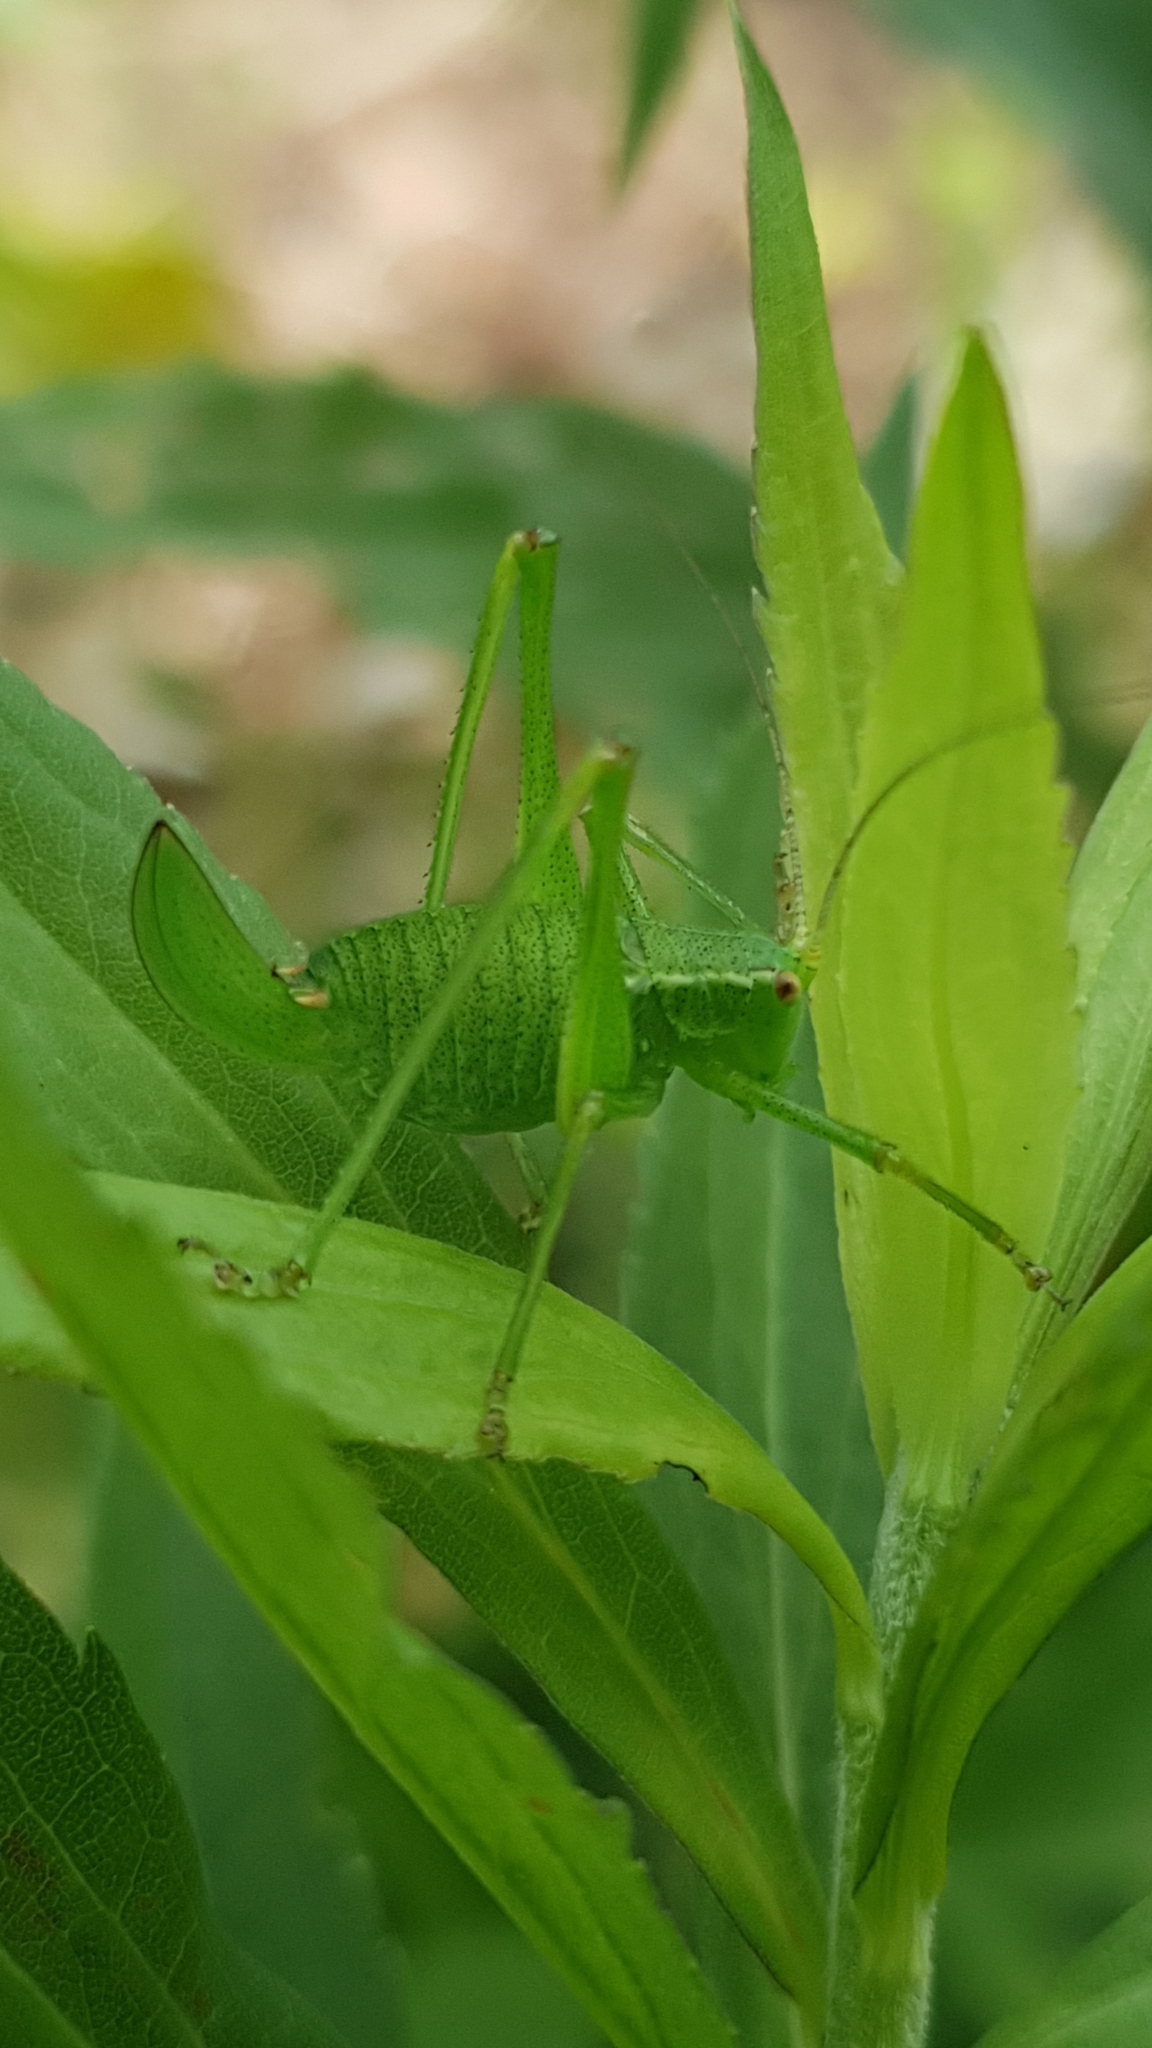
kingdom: Animalia
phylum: Arthropoda
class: Insecta
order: Orthoptera
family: Tettigoniidae
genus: Leptophyes
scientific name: Leptophyes punctatissima
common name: Speckled bush-cricket
